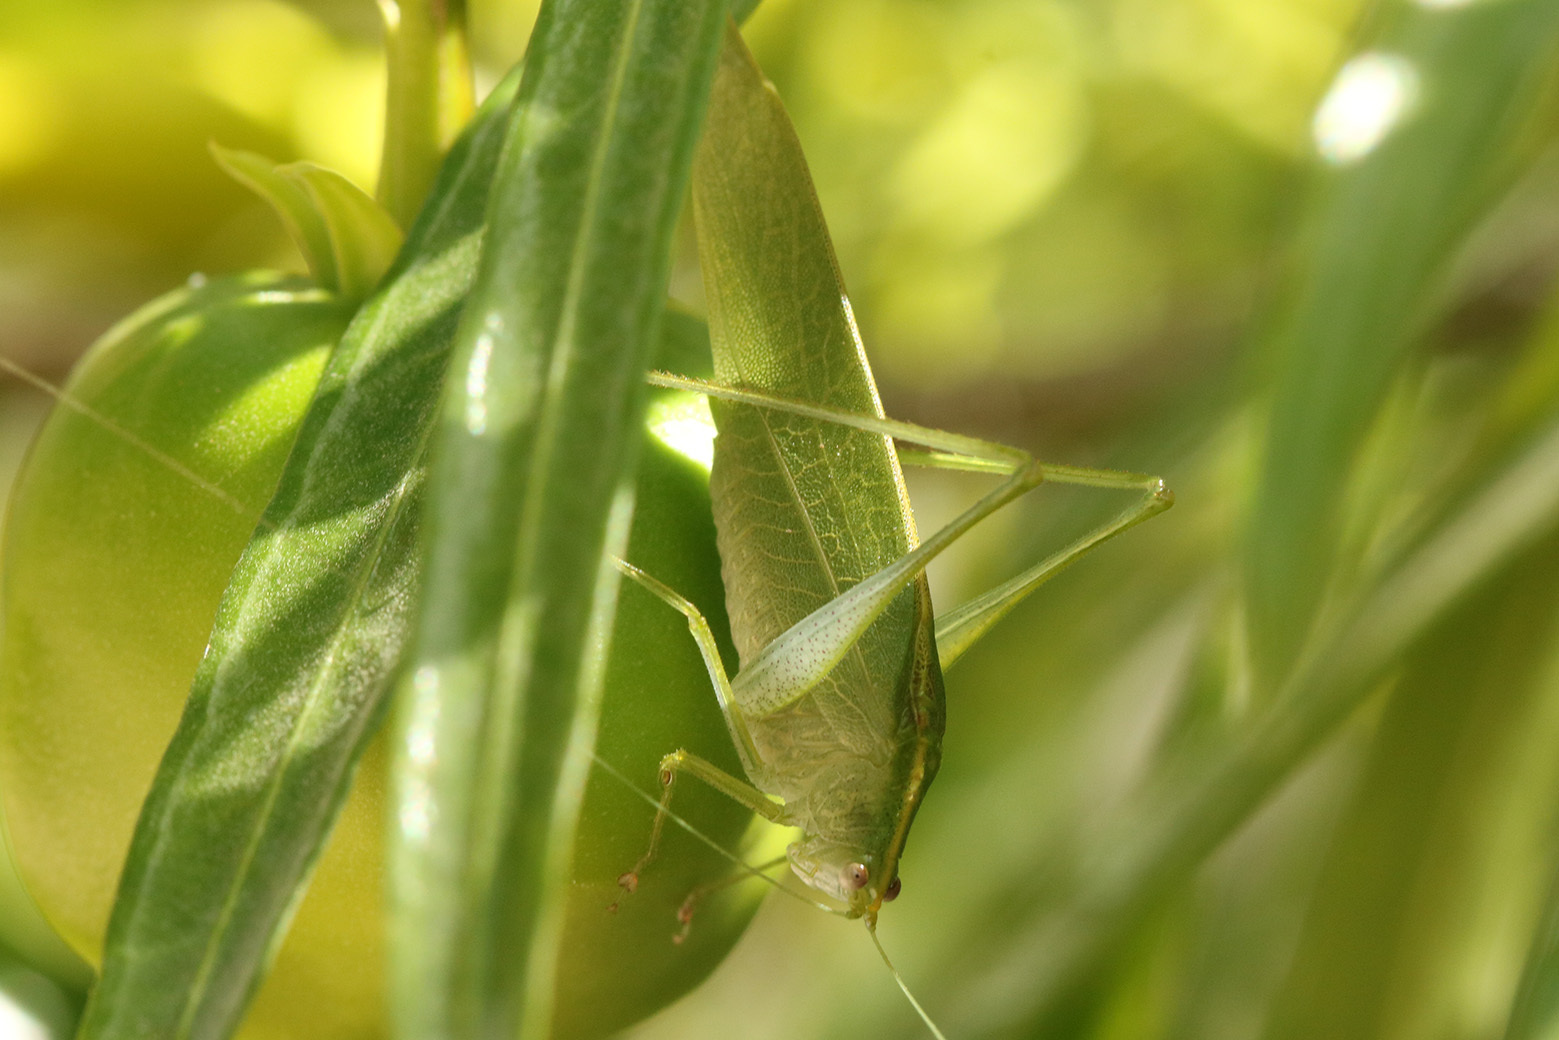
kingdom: Animalia
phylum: Arthropoda
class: Insecta
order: Orthoptera
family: Tettigoniidae
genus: Grammadera
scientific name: Grammadera clara
